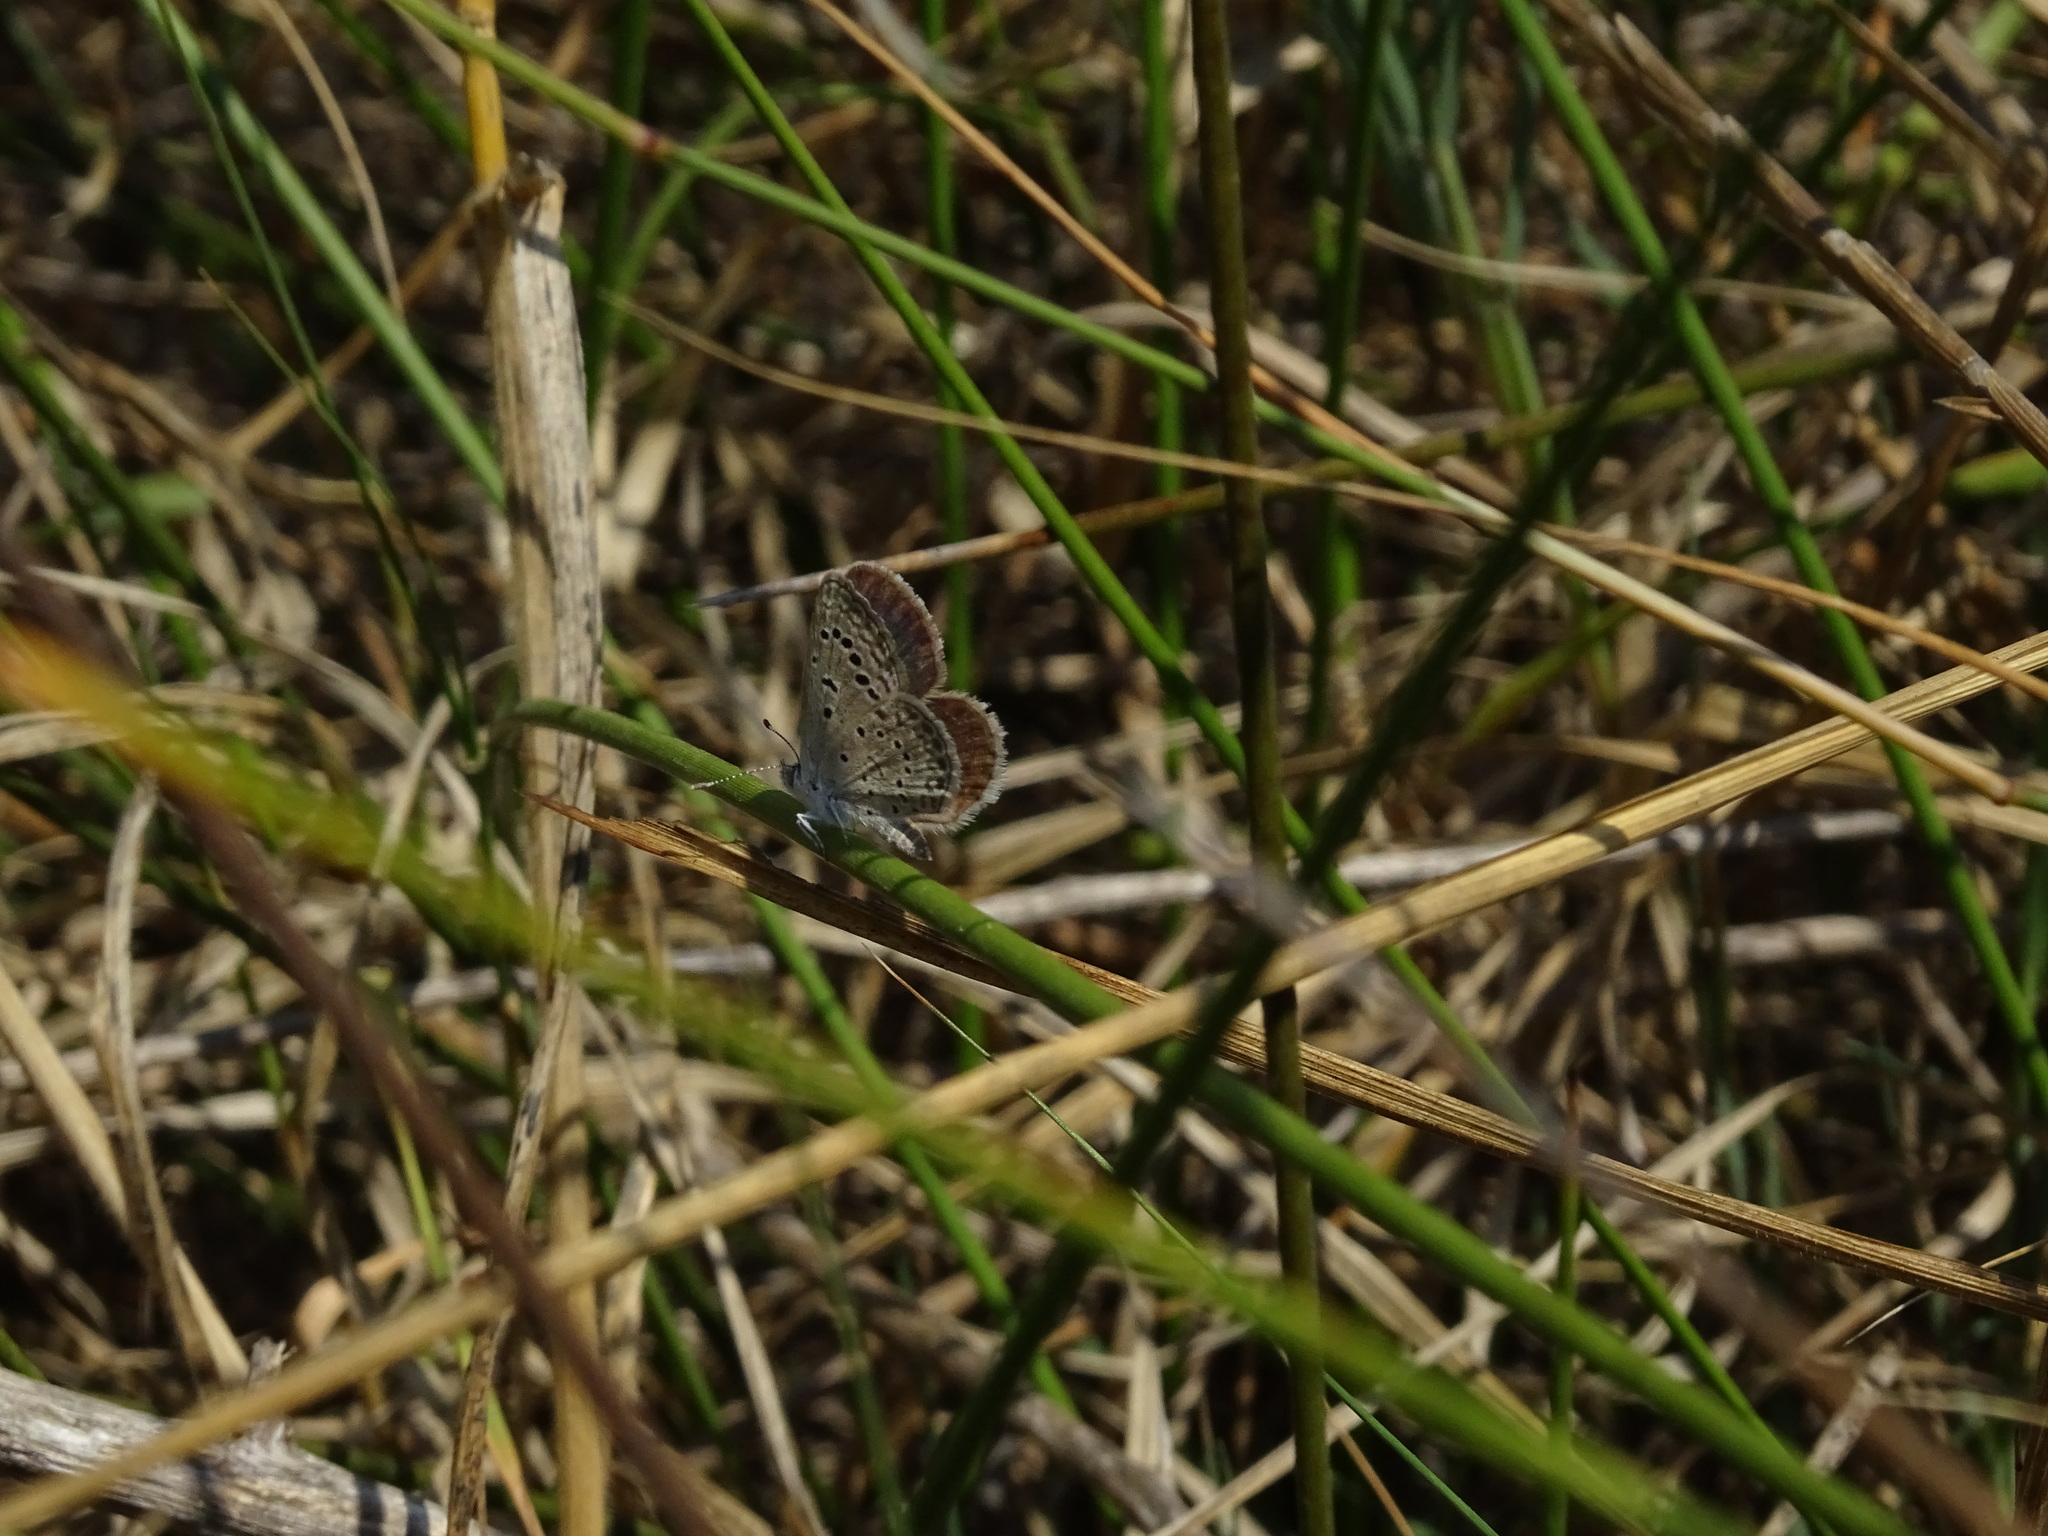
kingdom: Animalia
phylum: Arthropoda
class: Insecta
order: Lepidoptera
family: Lycaenidae
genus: Zizeeria
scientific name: Zizeeria karsandra
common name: Dark grass blue
